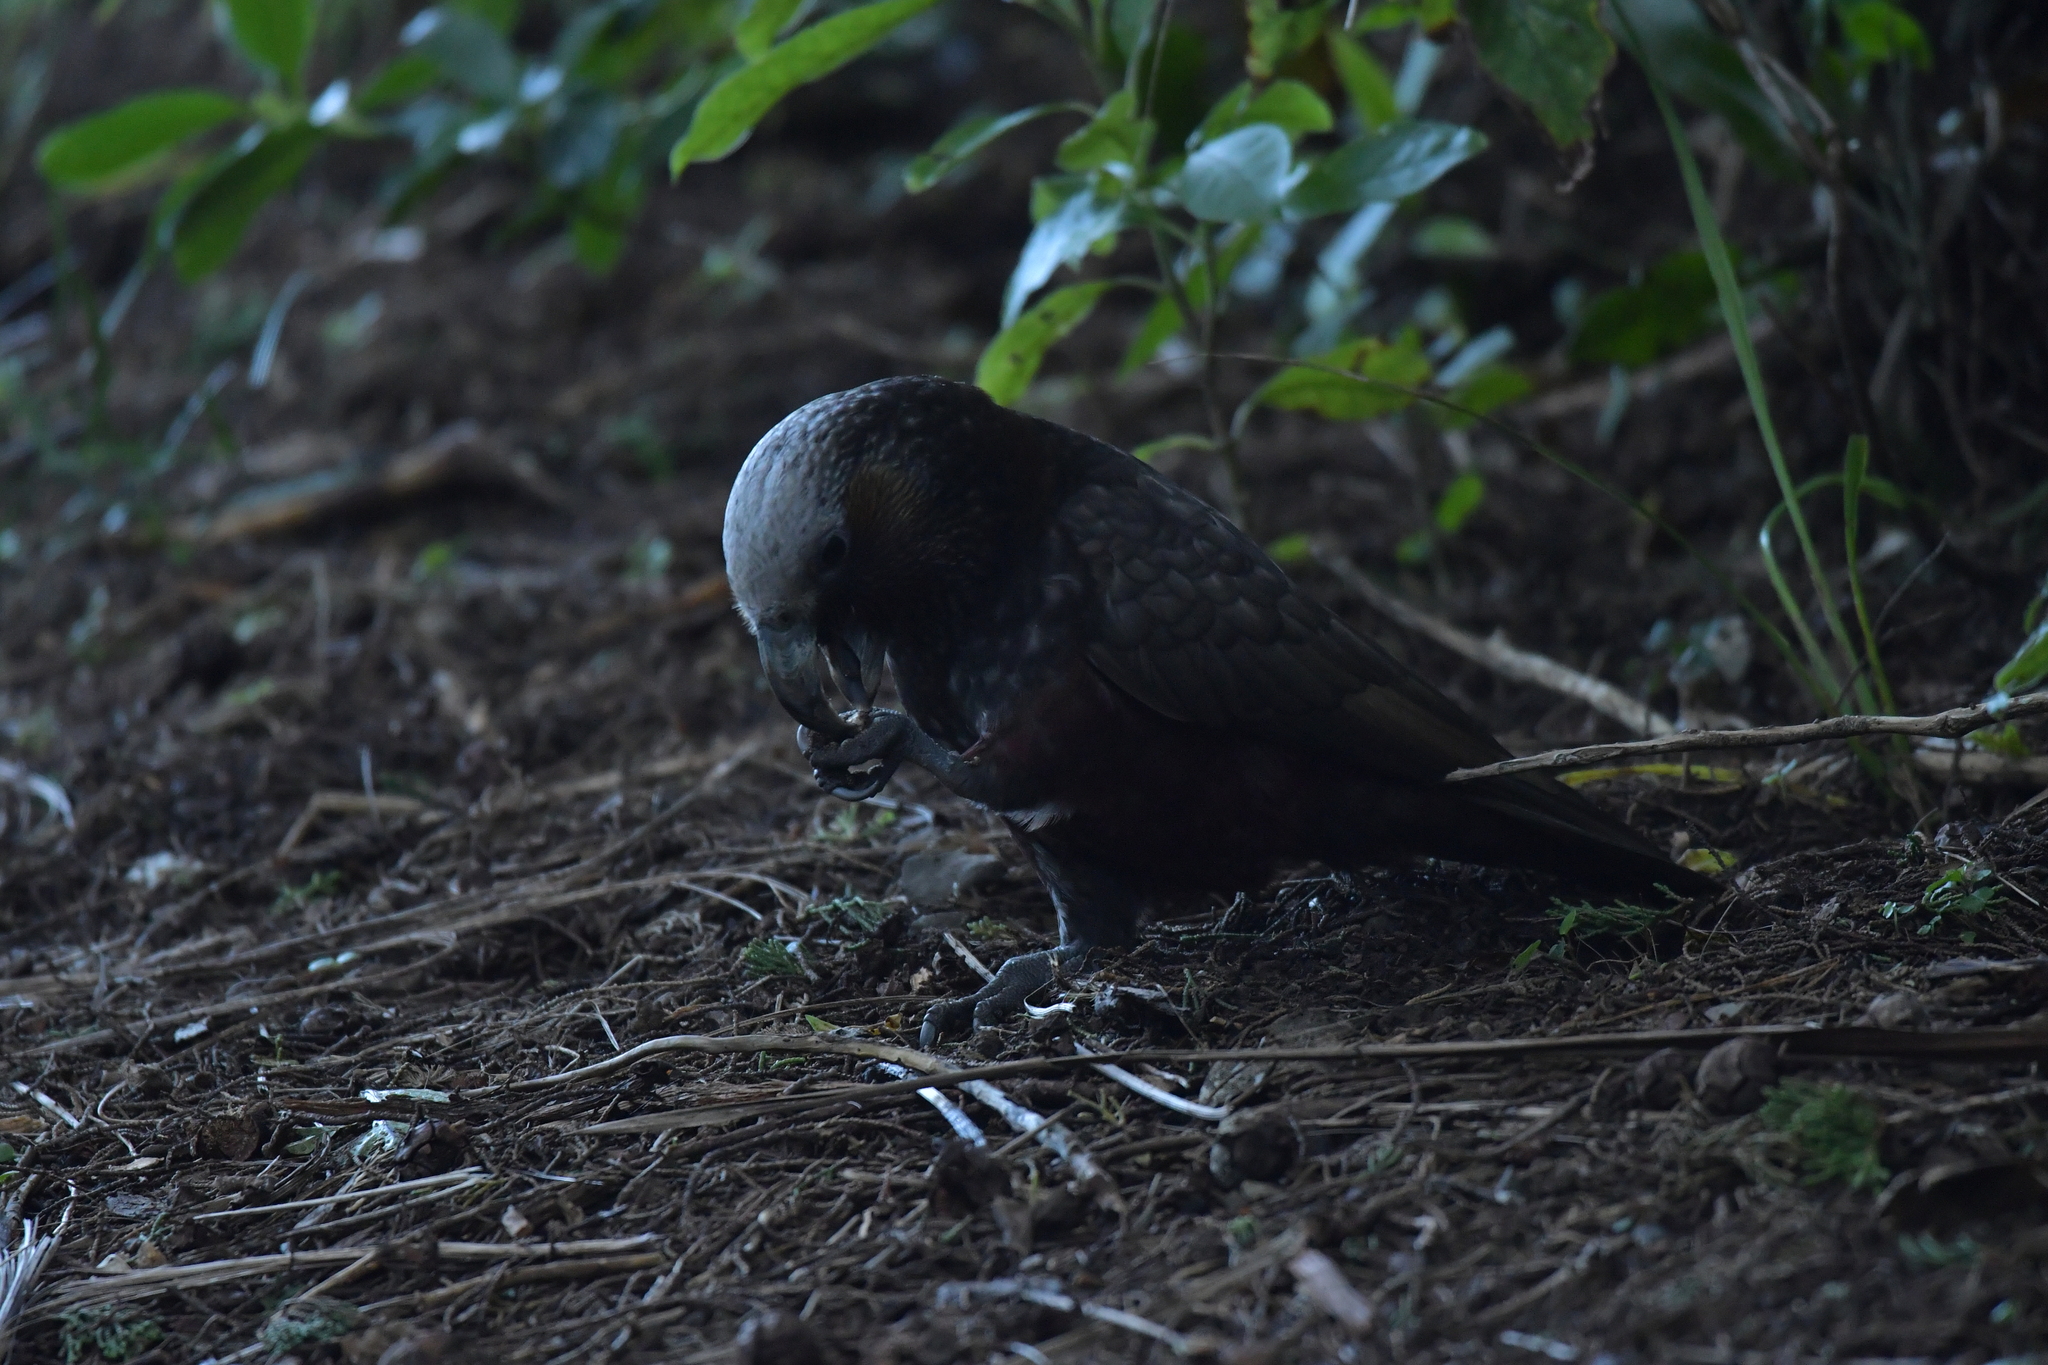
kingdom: Animalia
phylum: Chordata
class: Aves
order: Psittaciformes
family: Psittacidae
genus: Nestor
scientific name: Nestor meridionalis
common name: New zealand kaka
